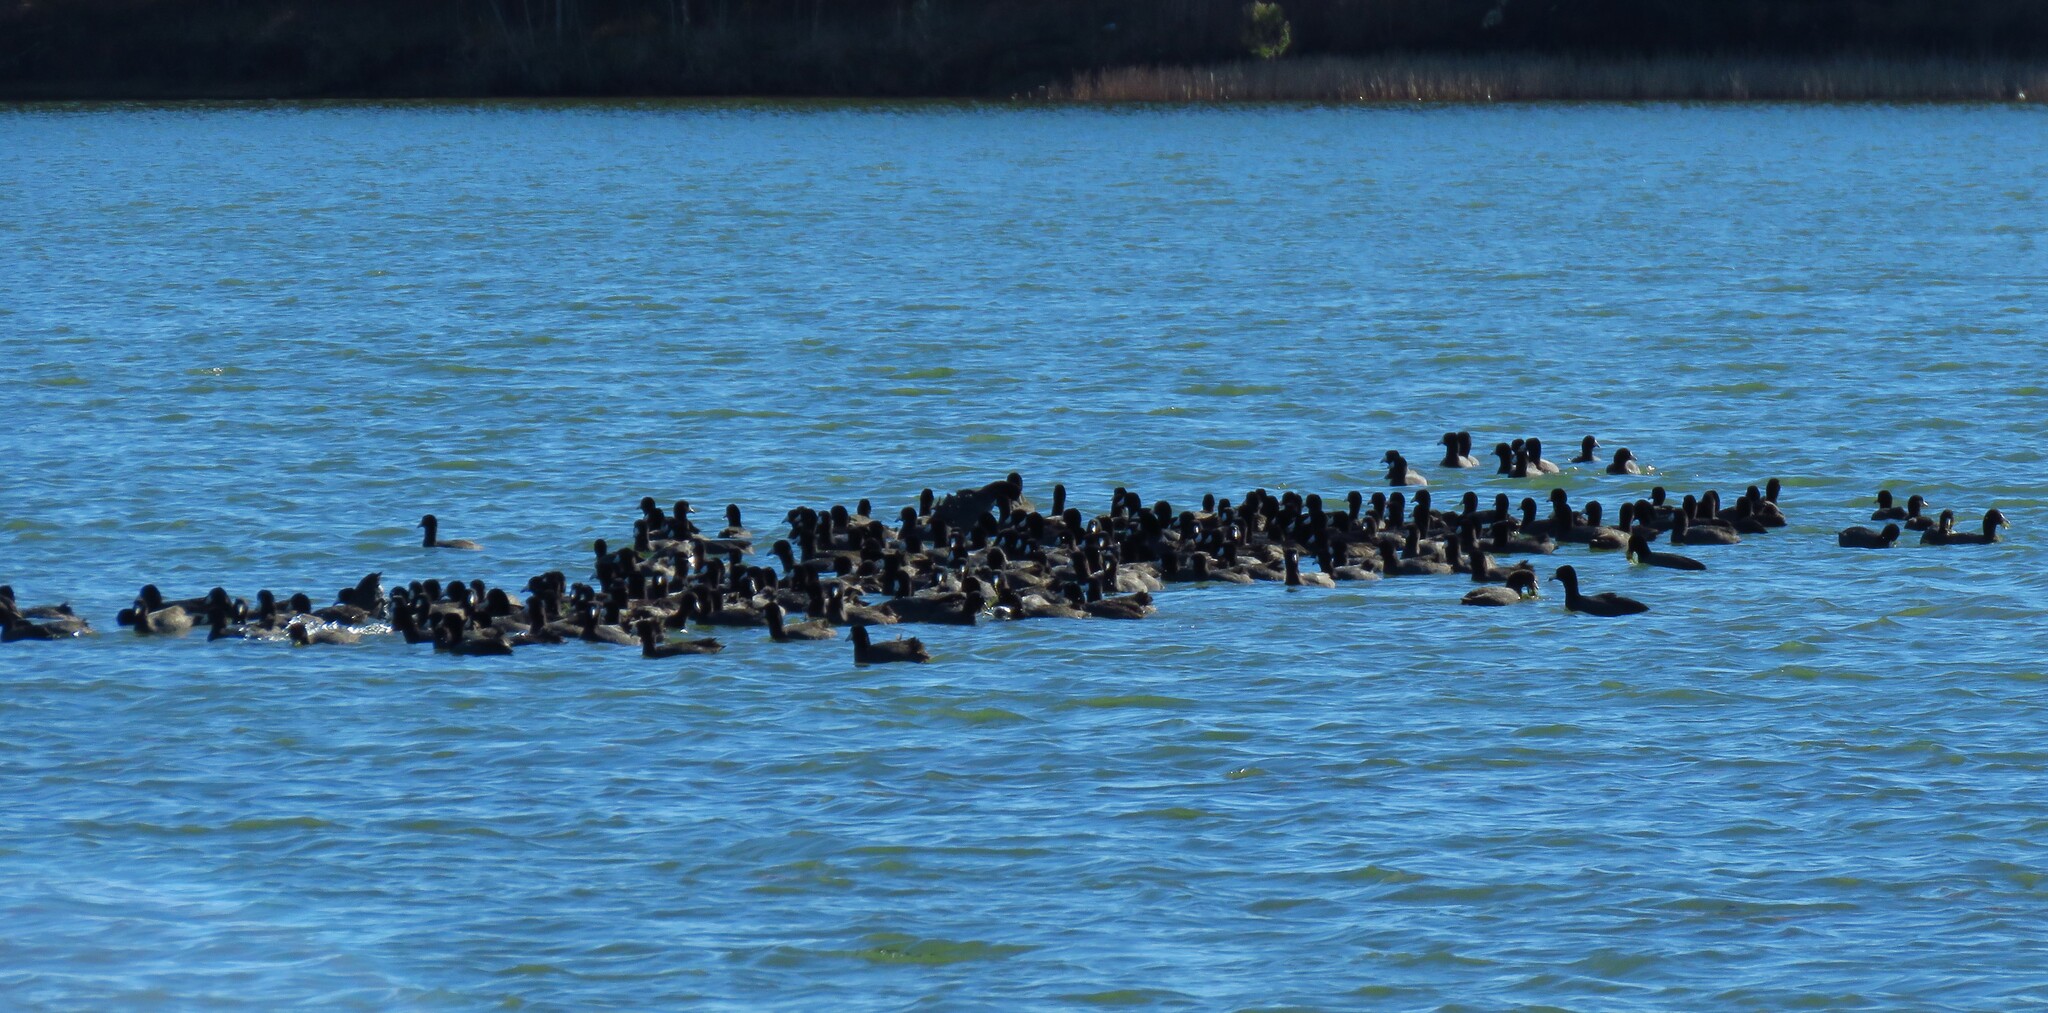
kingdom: Animalia
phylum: Chordata
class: Aves
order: Gruiformes
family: Rallidae
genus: Fulica
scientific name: Fulica americana
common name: American coot
